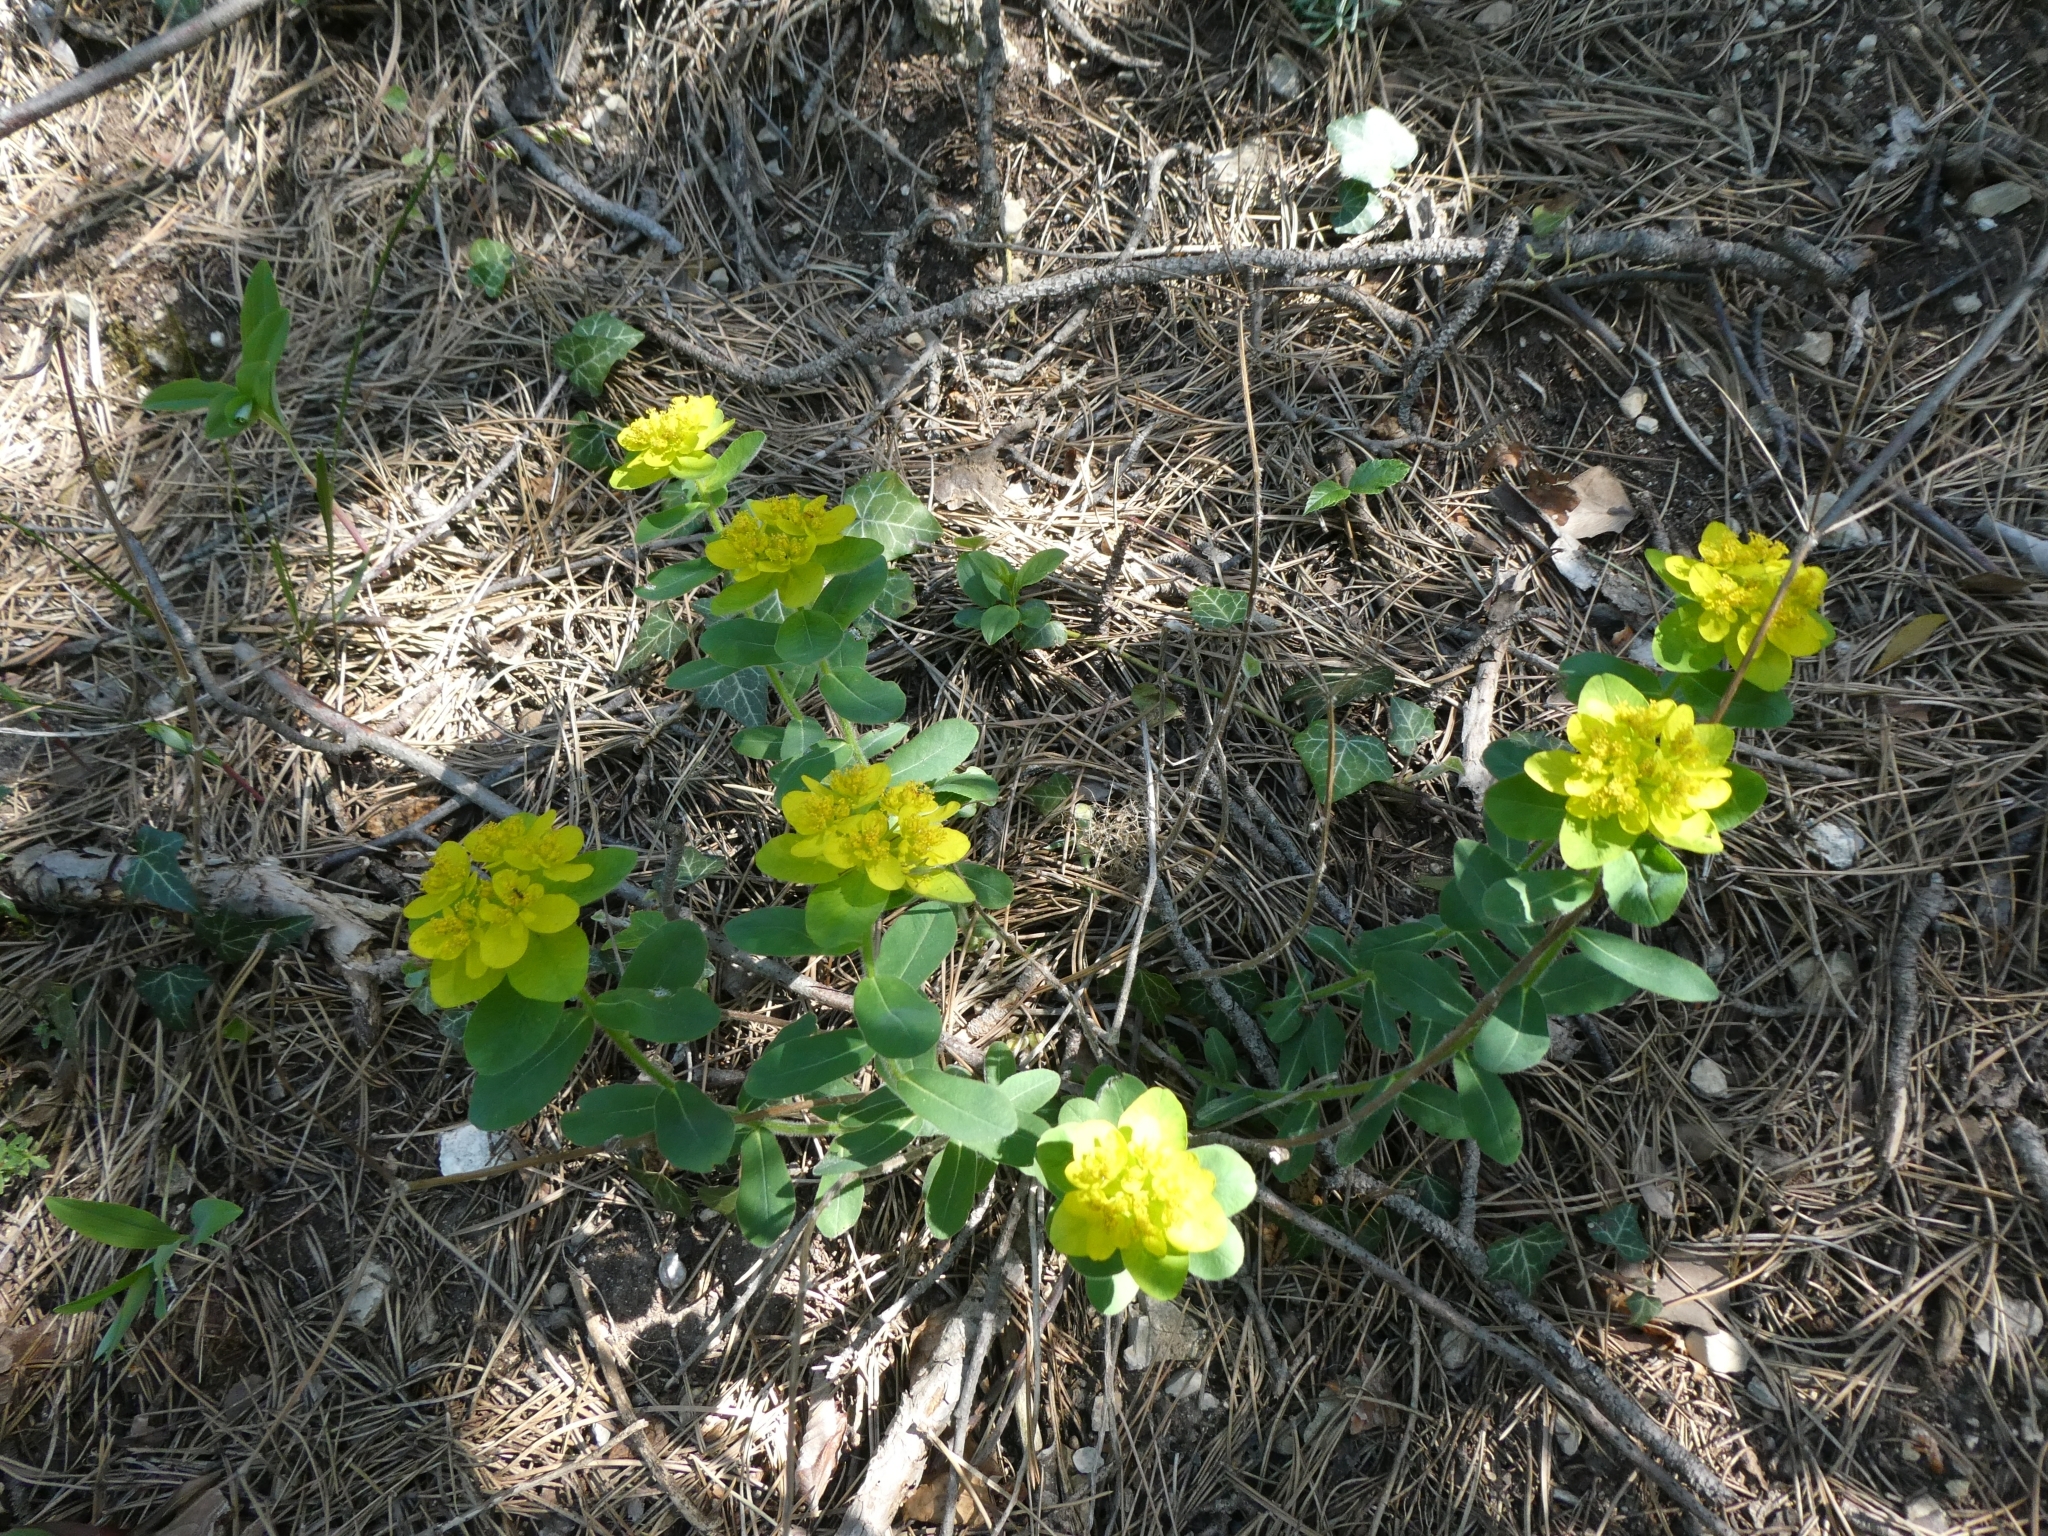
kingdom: Plantae
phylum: Tracheophyta
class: Magnoliopsida
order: Malpighiales
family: Euphorbiaceae
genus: Euphorbia
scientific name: Euphorbia epithymoides
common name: Cushion spurge
